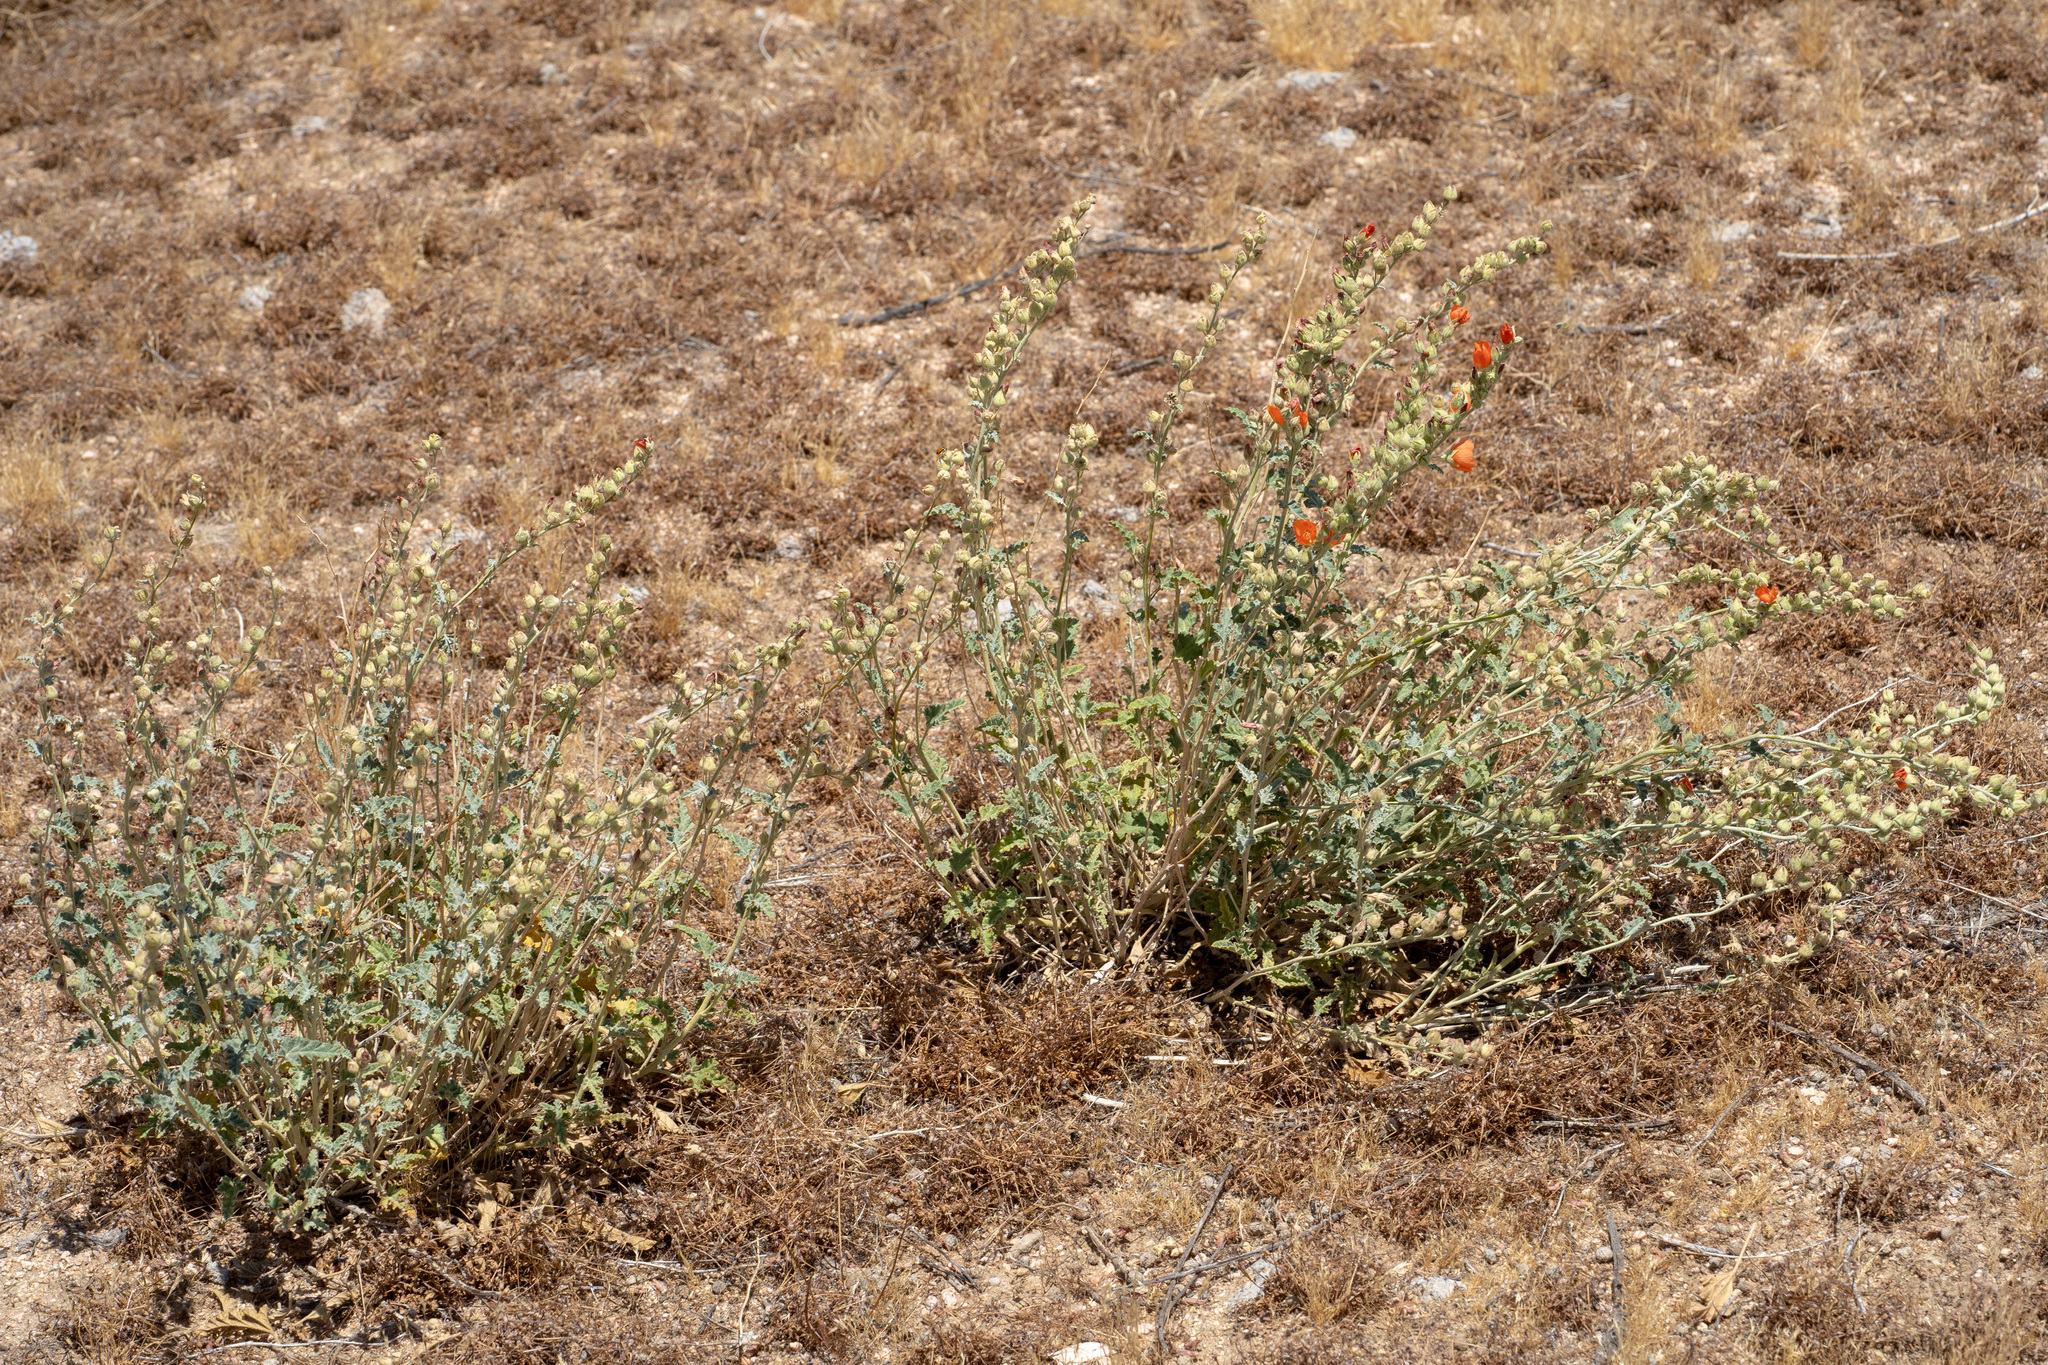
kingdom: Plantae
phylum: Tracheophyta
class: Magnoliopsida
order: Malvales
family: Malvaceae
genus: Sphaeralcea
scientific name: Sphaeralcea ambigua
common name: Apricot globe-mallow
